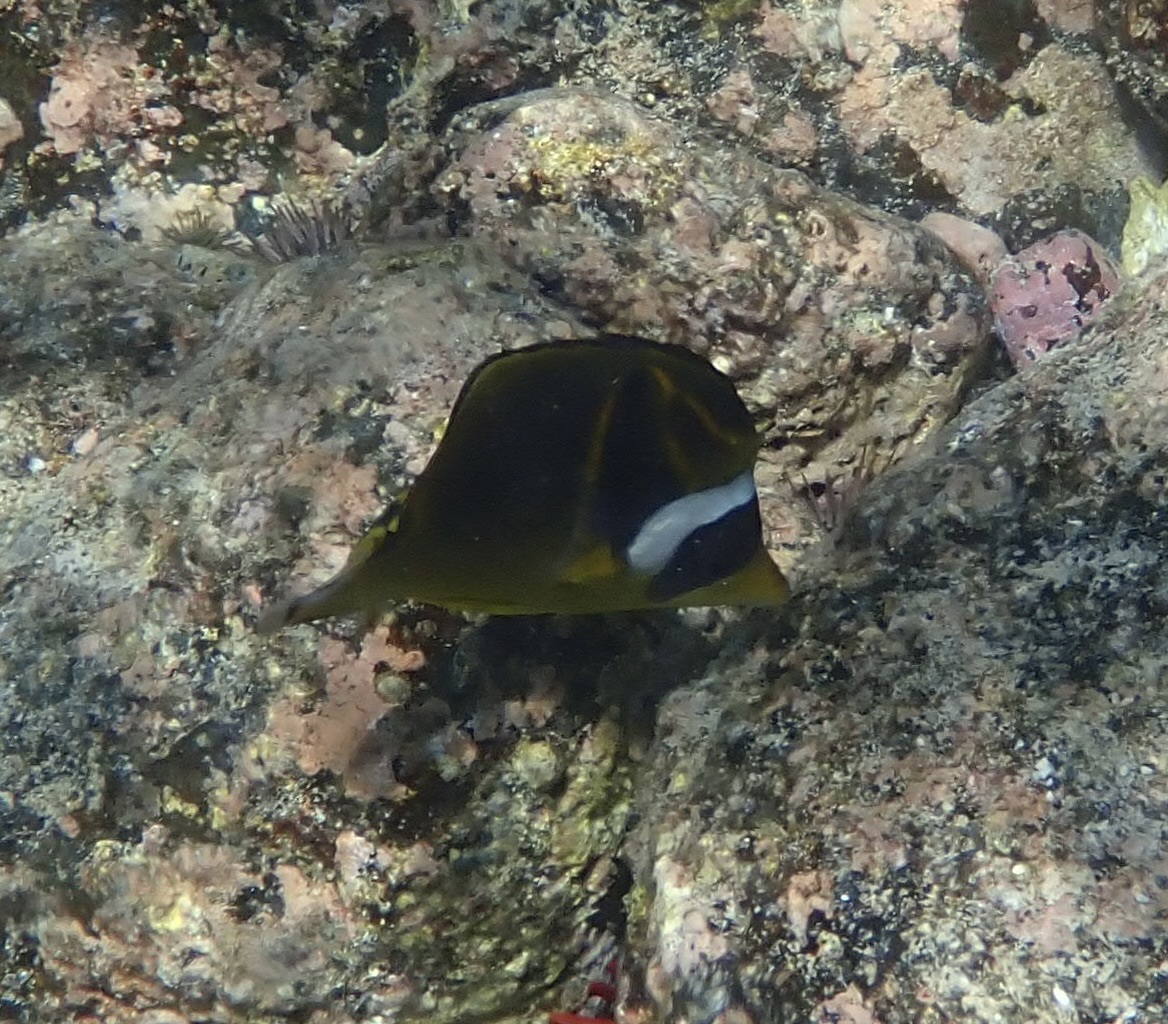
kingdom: Animalia
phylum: Chordata
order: Perciformes
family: Chaetodontidae
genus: Chaetodon
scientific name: Chaetodon lunula
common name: Raccoon butterflyfish
